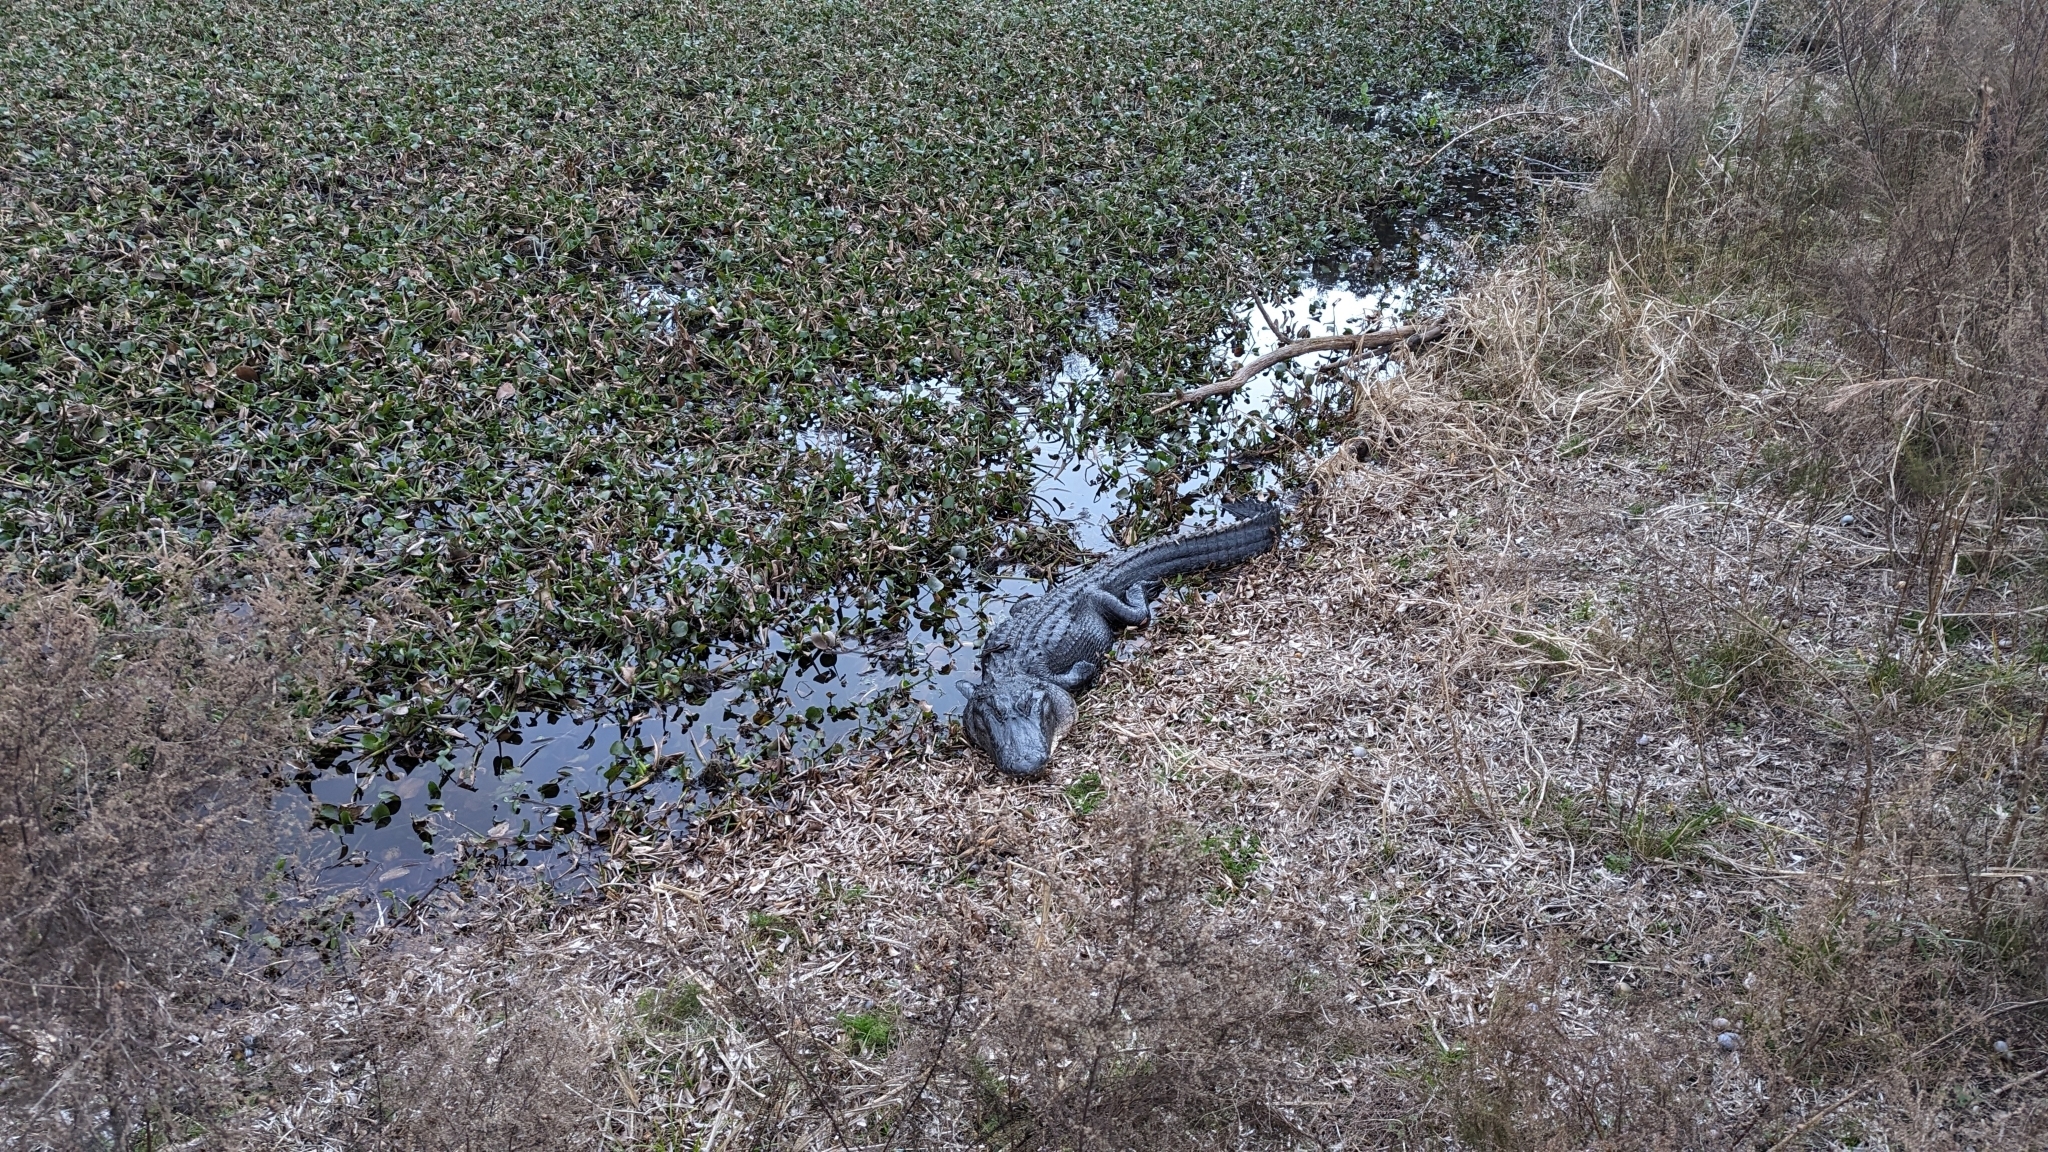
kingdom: Animalia
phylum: Chordata
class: Crocodylia
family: Alligatoridae
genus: Alligator
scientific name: Alligator mississippiensis
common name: American alligator
